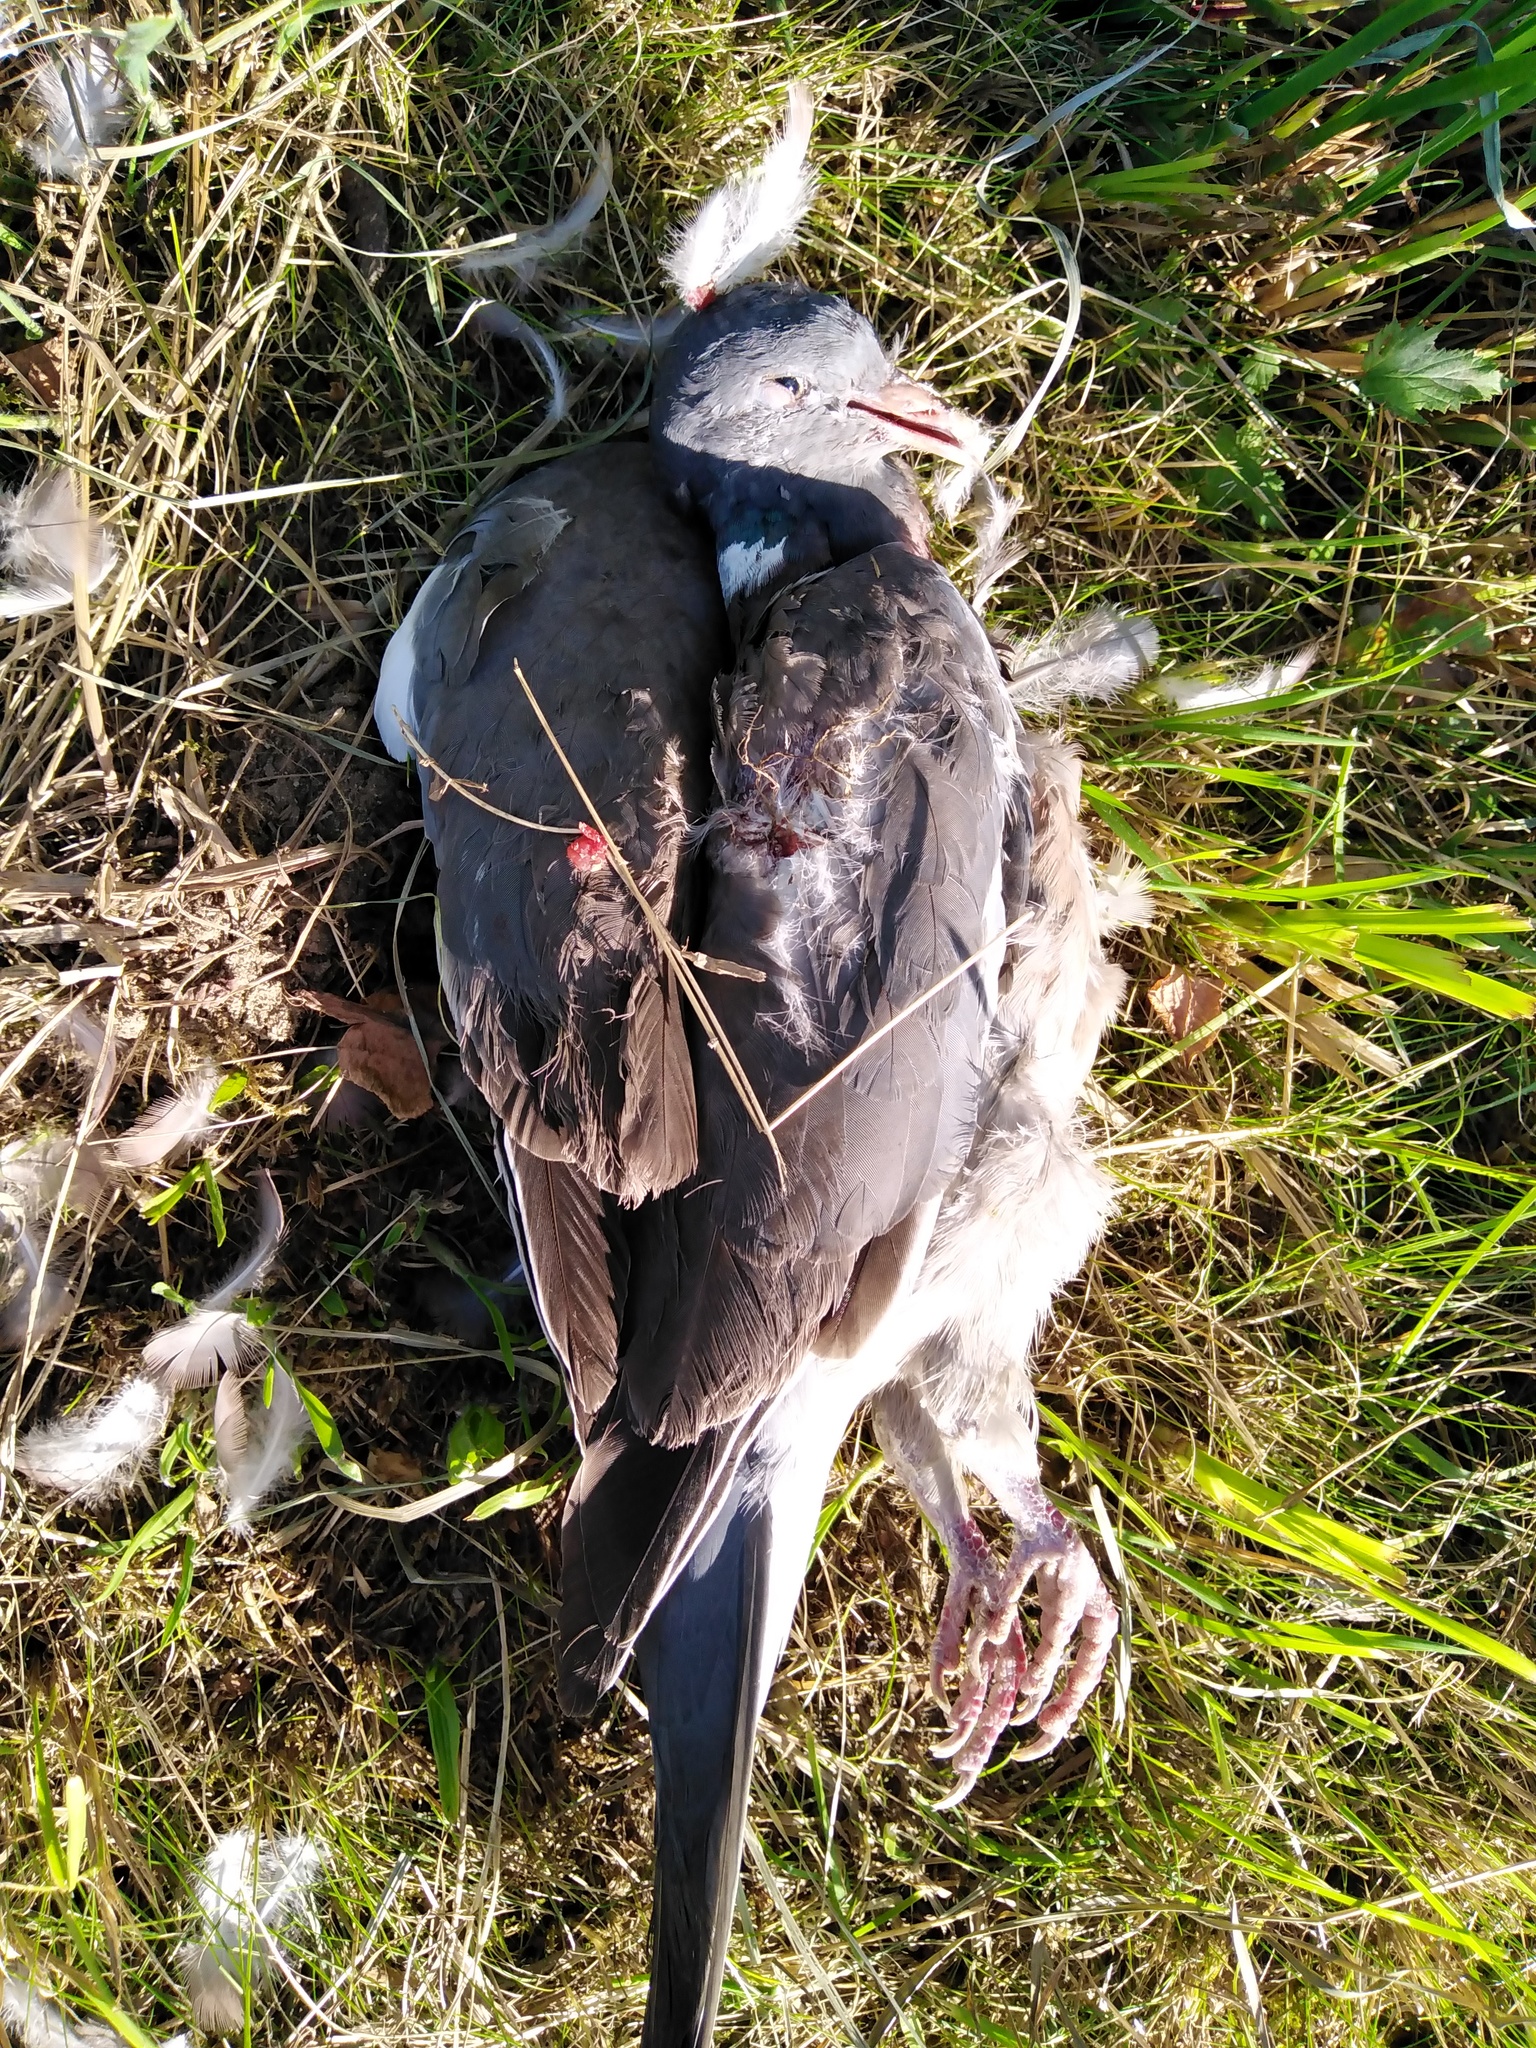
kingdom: Animalia
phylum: Chordata
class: Aves
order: Columbiformes
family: Columbidae
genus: Columba
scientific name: Columba palumbus
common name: Common wood pigeon
